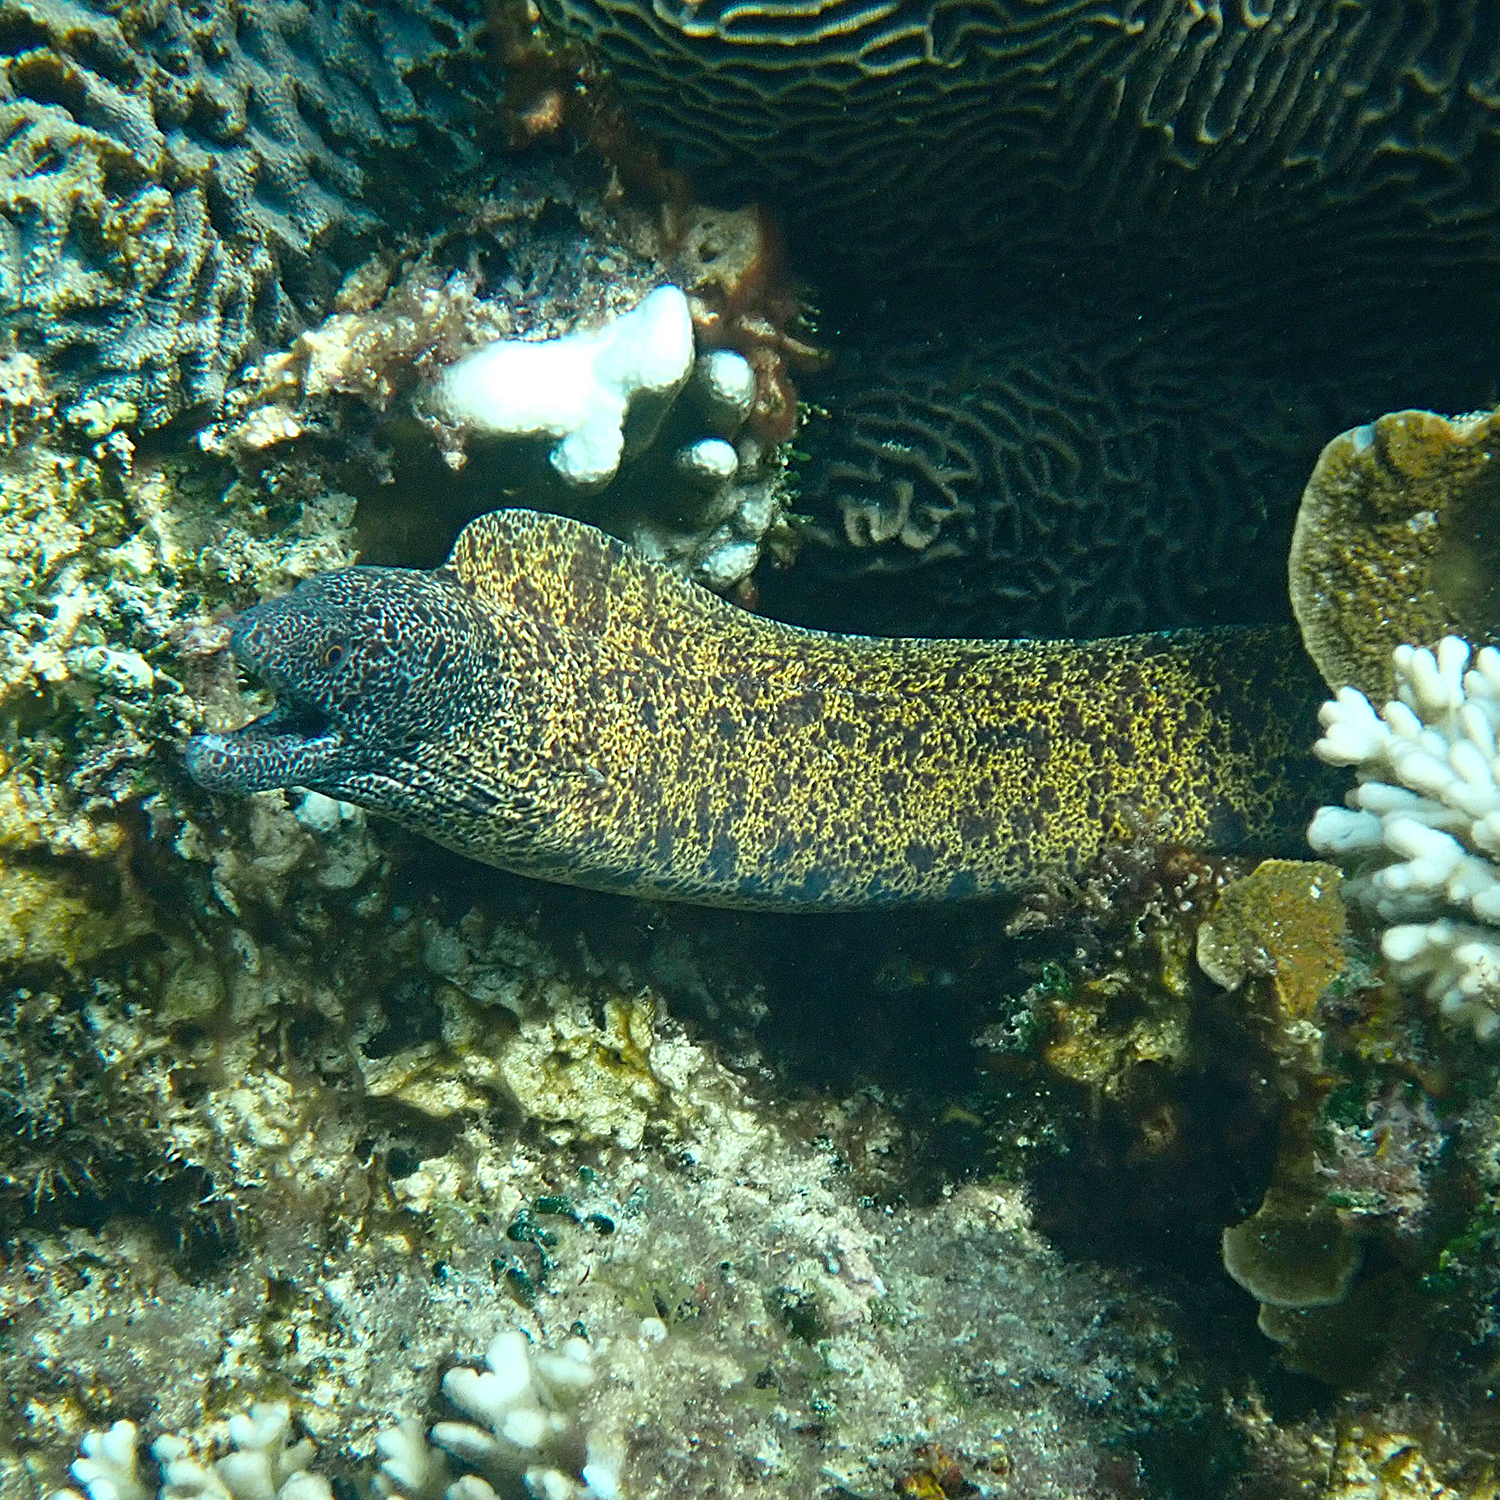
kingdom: Animalia
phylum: Chordata
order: Anguilliformes
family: Muraenidae
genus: Gymnothorax
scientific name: Gymnothorax annasona
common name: Lord howe island moray
